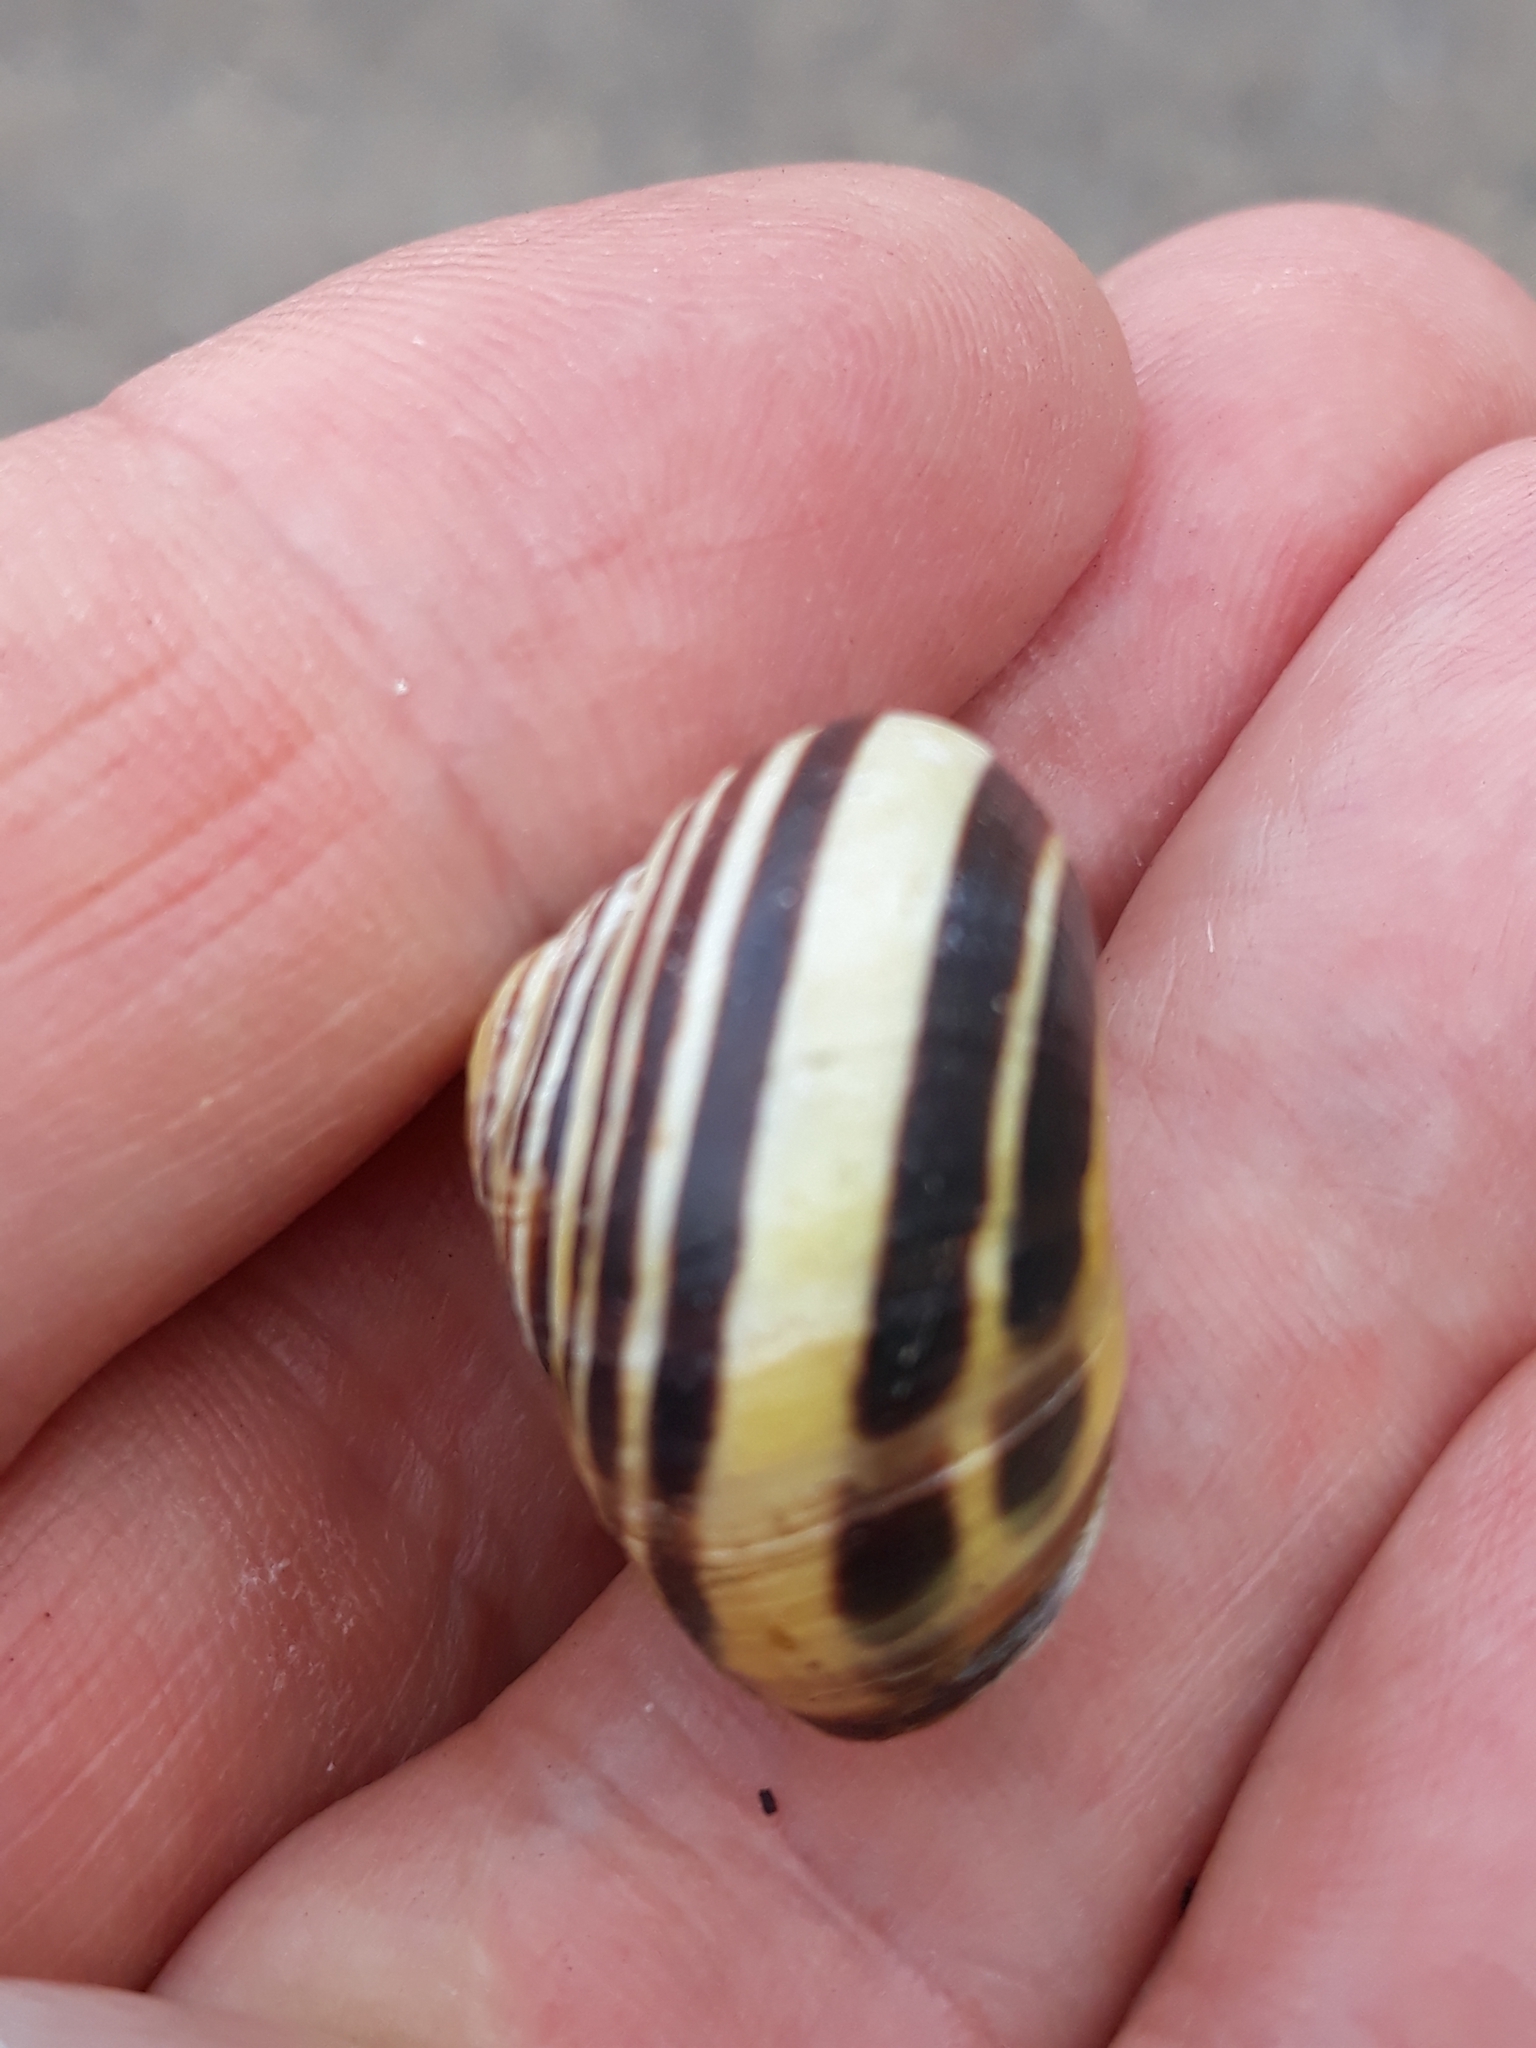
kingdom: Animalia
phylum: Mollusca
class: Gastropoda
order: Stylommatophora
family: Helicidae
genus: Cepaea
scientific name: Cepaea nemoralis
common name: Grovesnail
